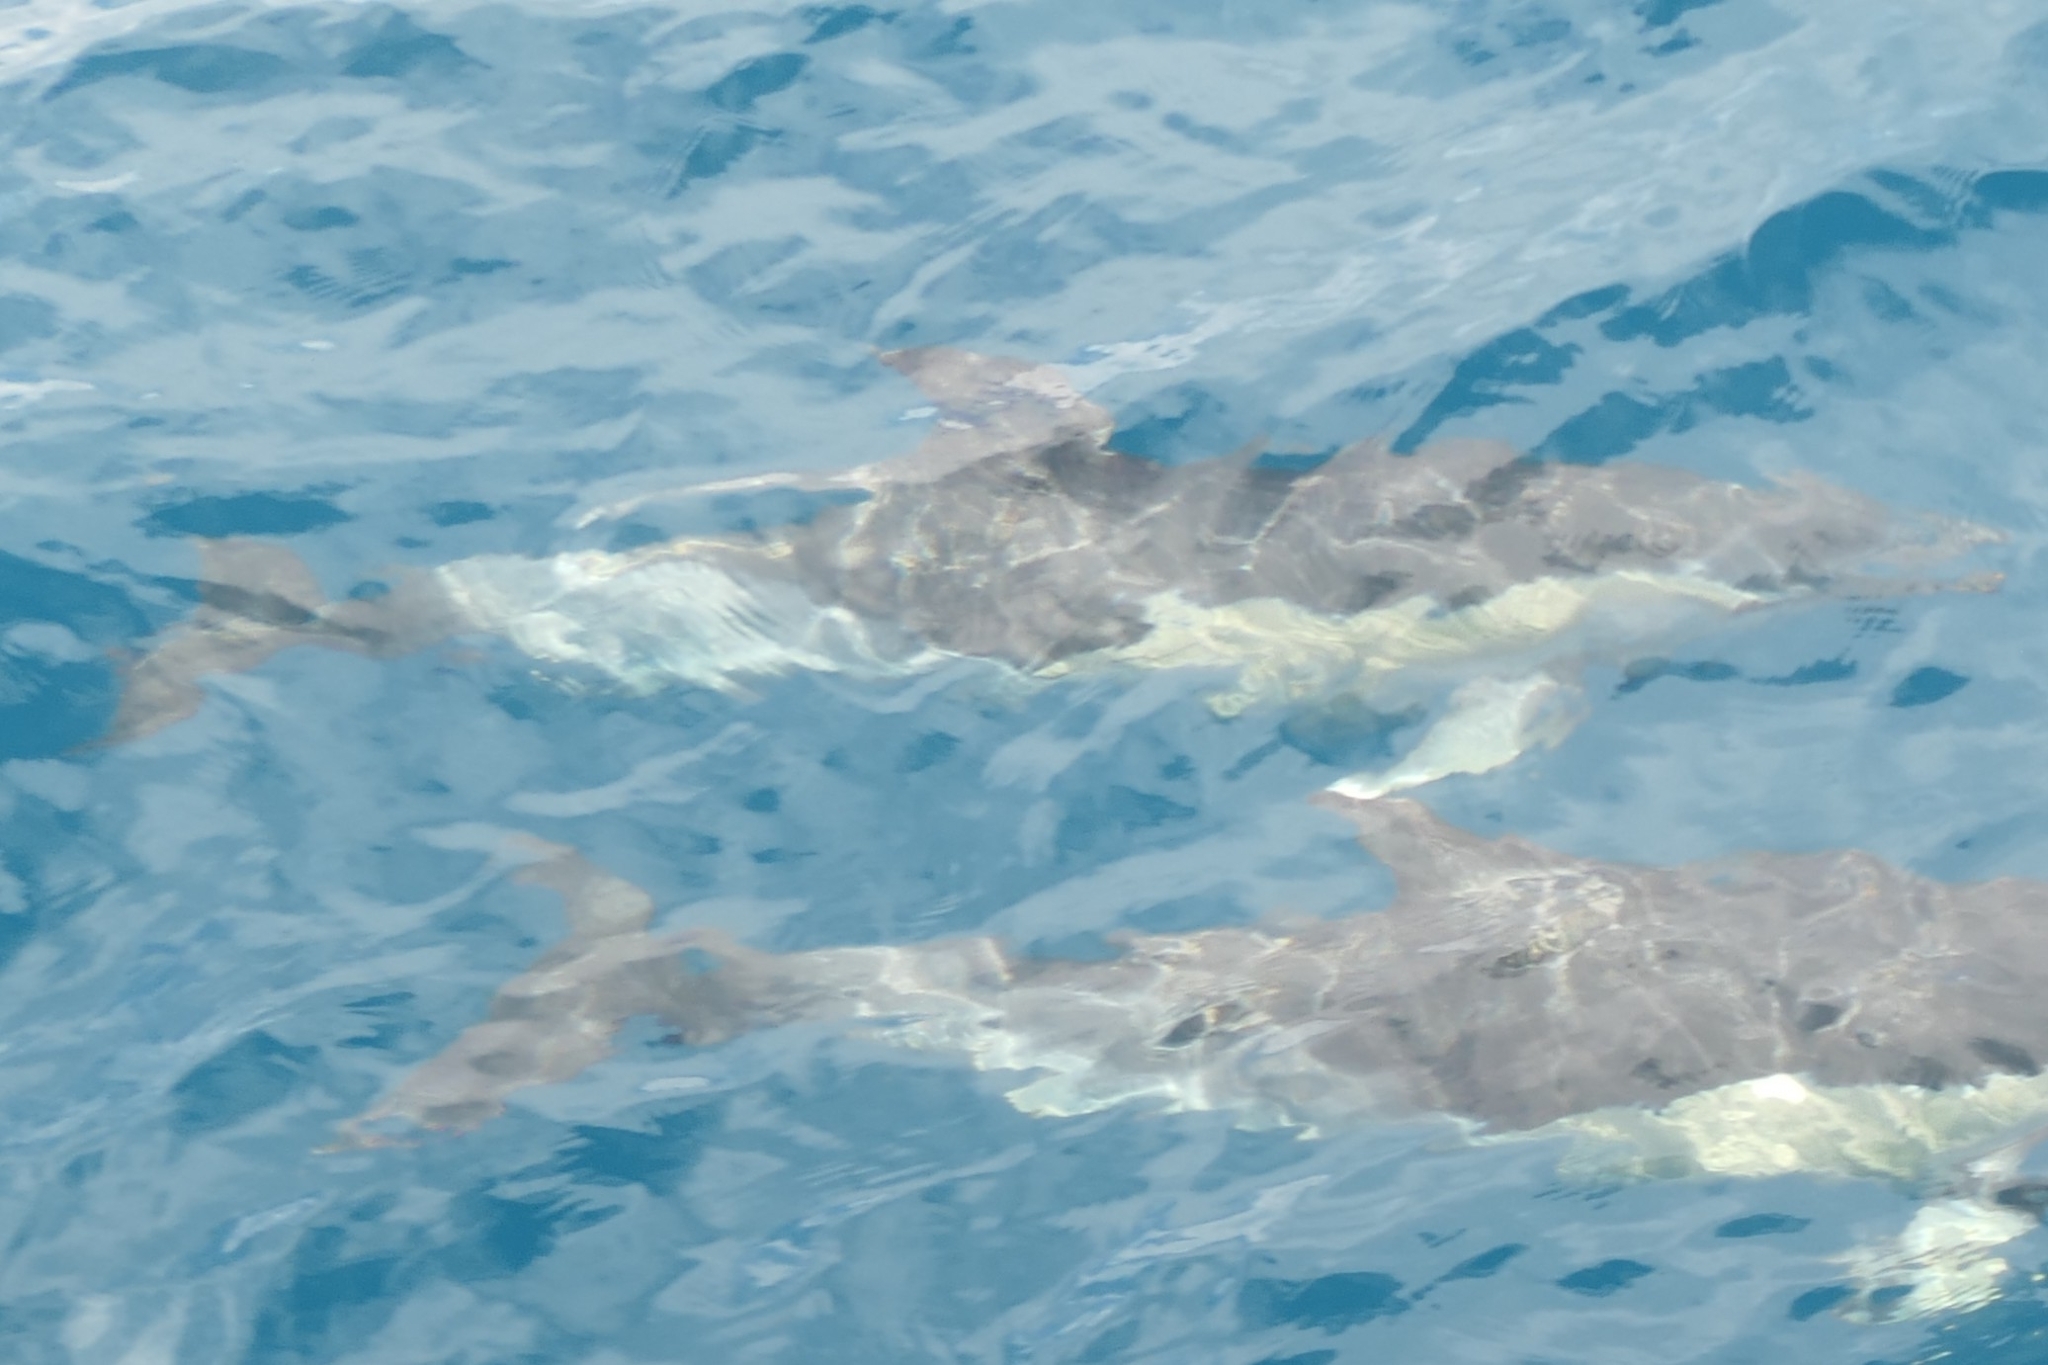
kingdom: Animalia
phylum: Chordata
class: Mammalia
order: Cetacea
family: Delphinidae
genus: Delphinus
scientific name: Delphinus delphis
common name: Common dolphin
